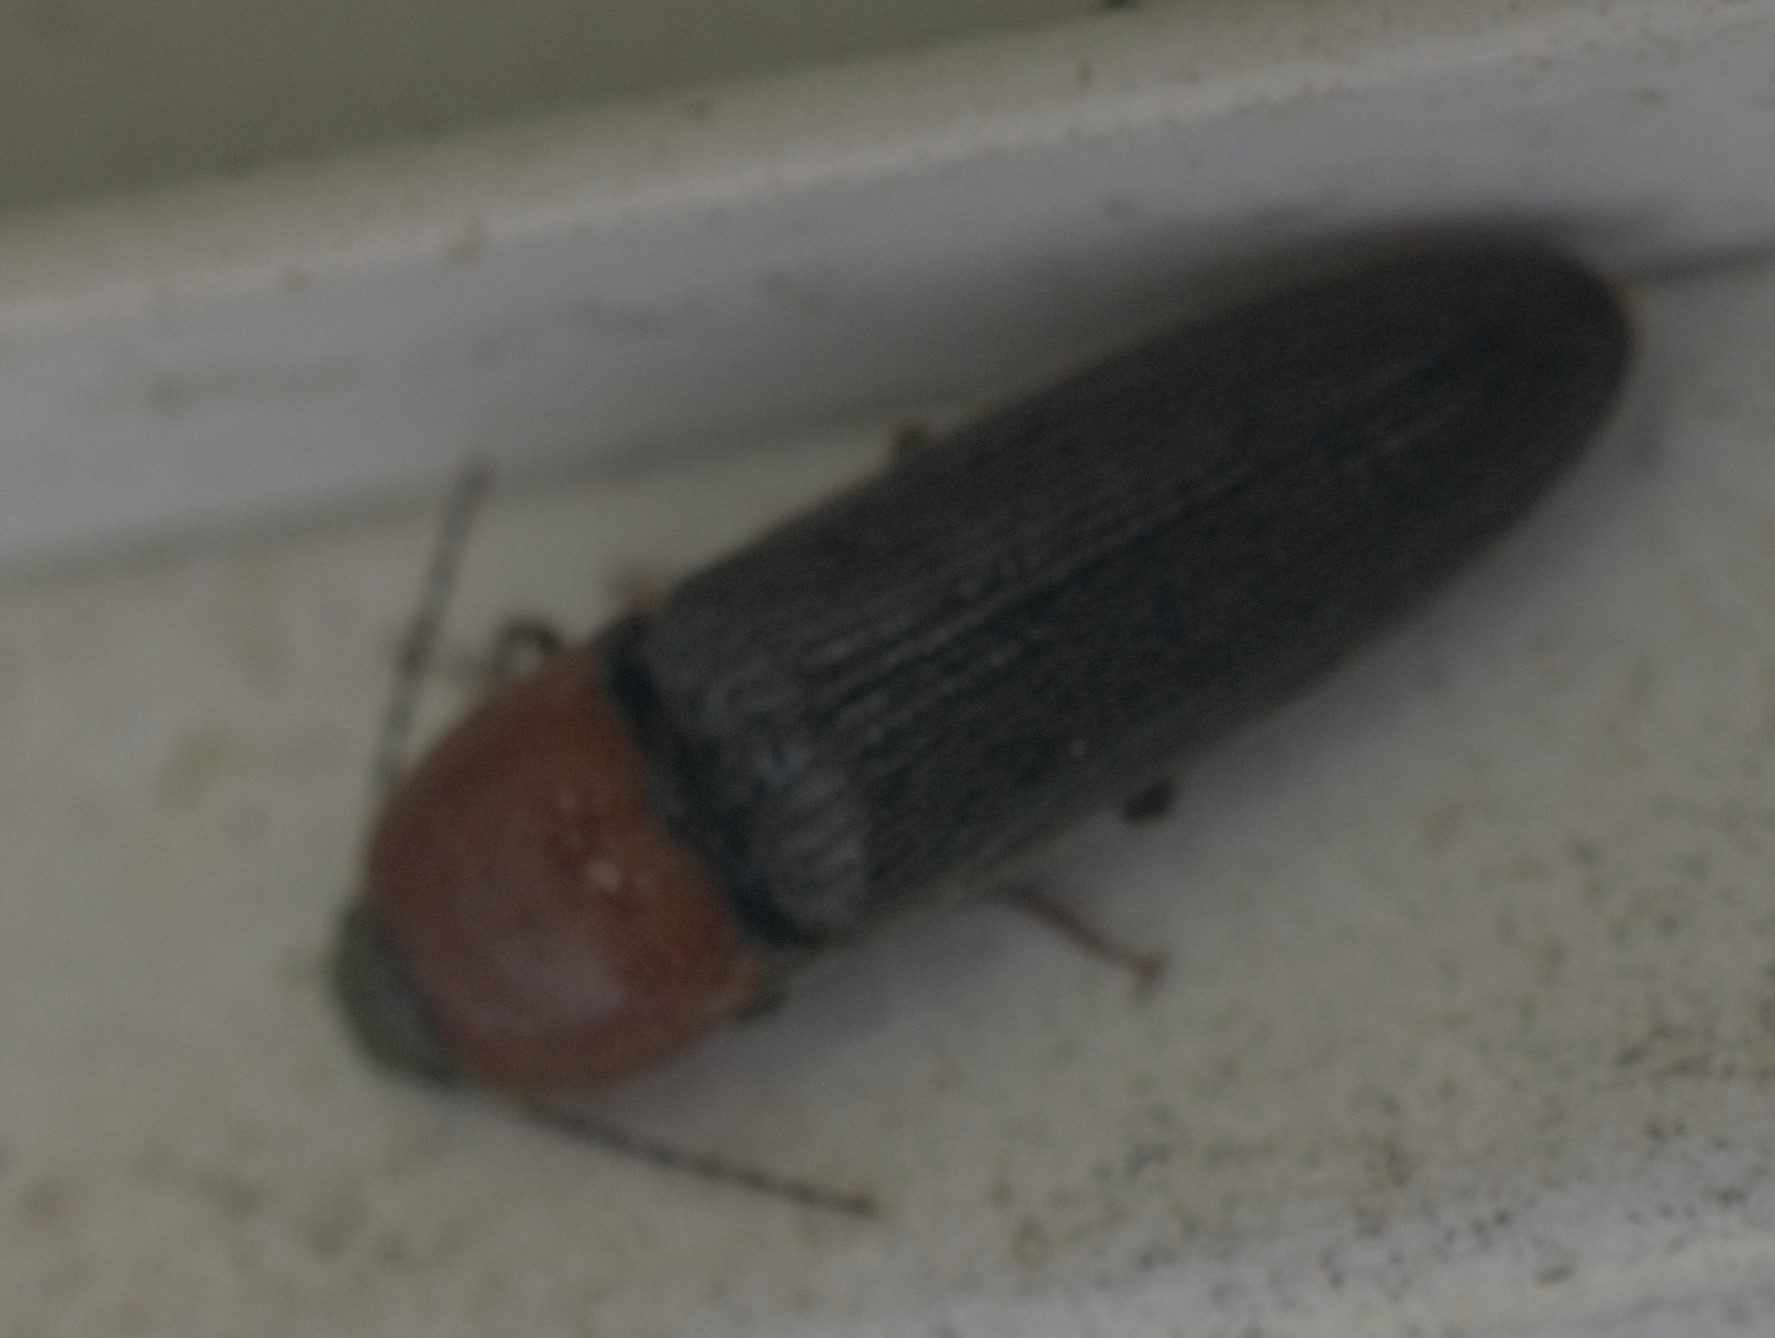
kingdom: Animalia
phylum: Arthropoda
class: Insecta
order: Coleoptera
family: Elateridae
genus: Ampedus
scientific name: Ampedus rubricollis
